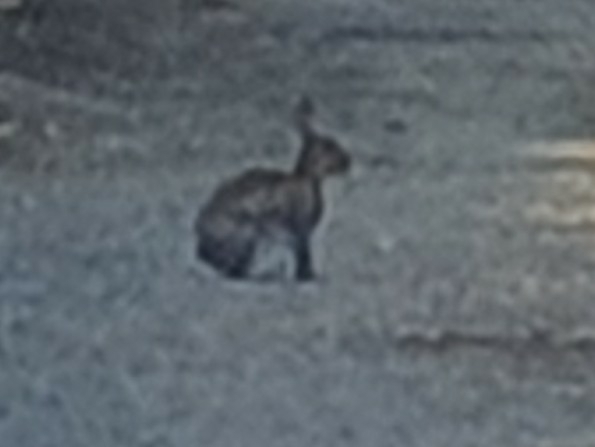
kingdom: Animalia
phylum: Chordata
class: Mammalia
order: Lagomorpha
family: Leporidae
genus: Oryctolagus
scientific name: Oryctolagus cuniculus
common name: European rabbit
